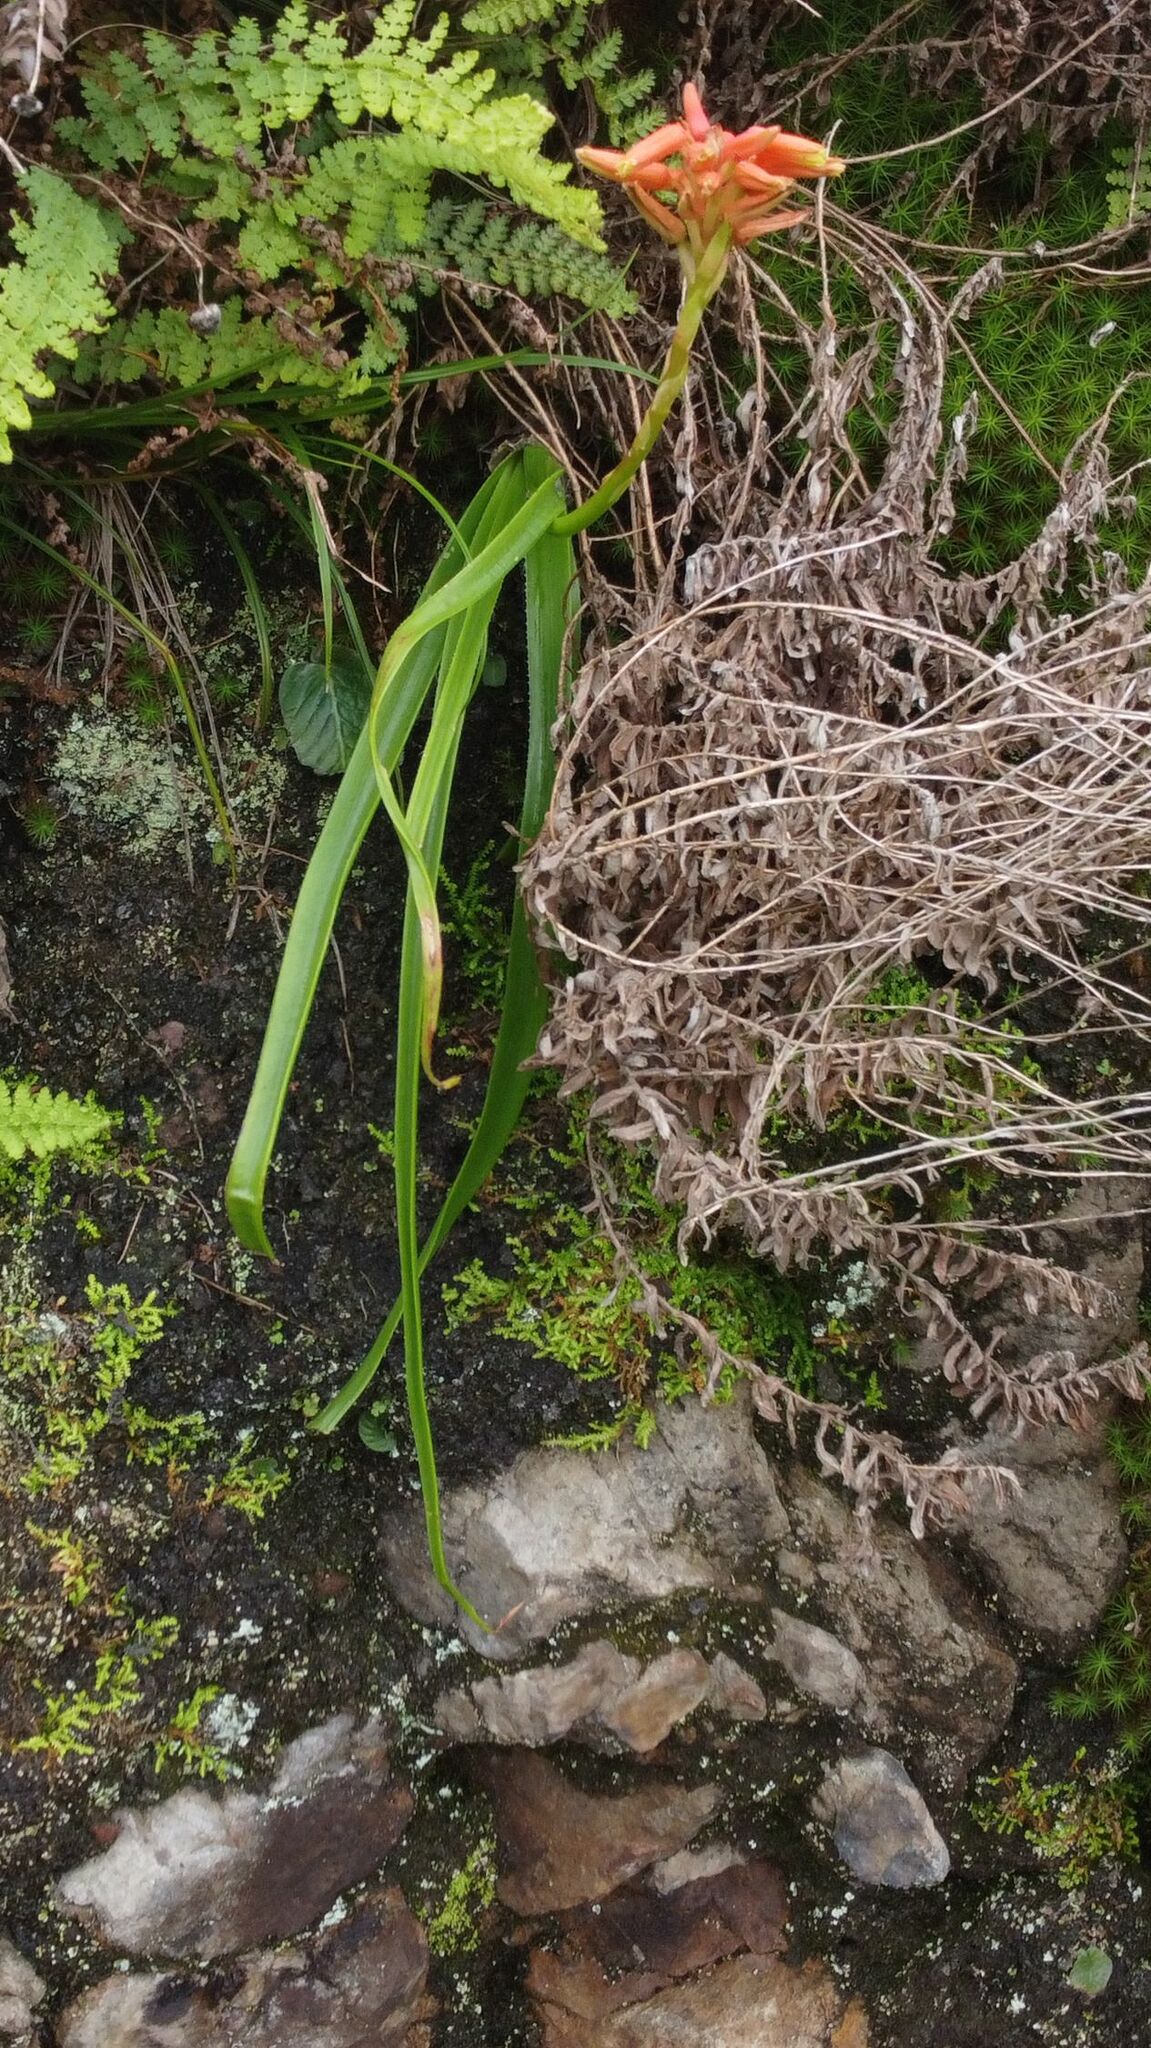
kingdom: Plantae
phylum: Tracheophyta
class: Liliopsida
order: Asparagales
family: Asphodelaceae
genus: Aloe
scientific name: Aloe condyae
